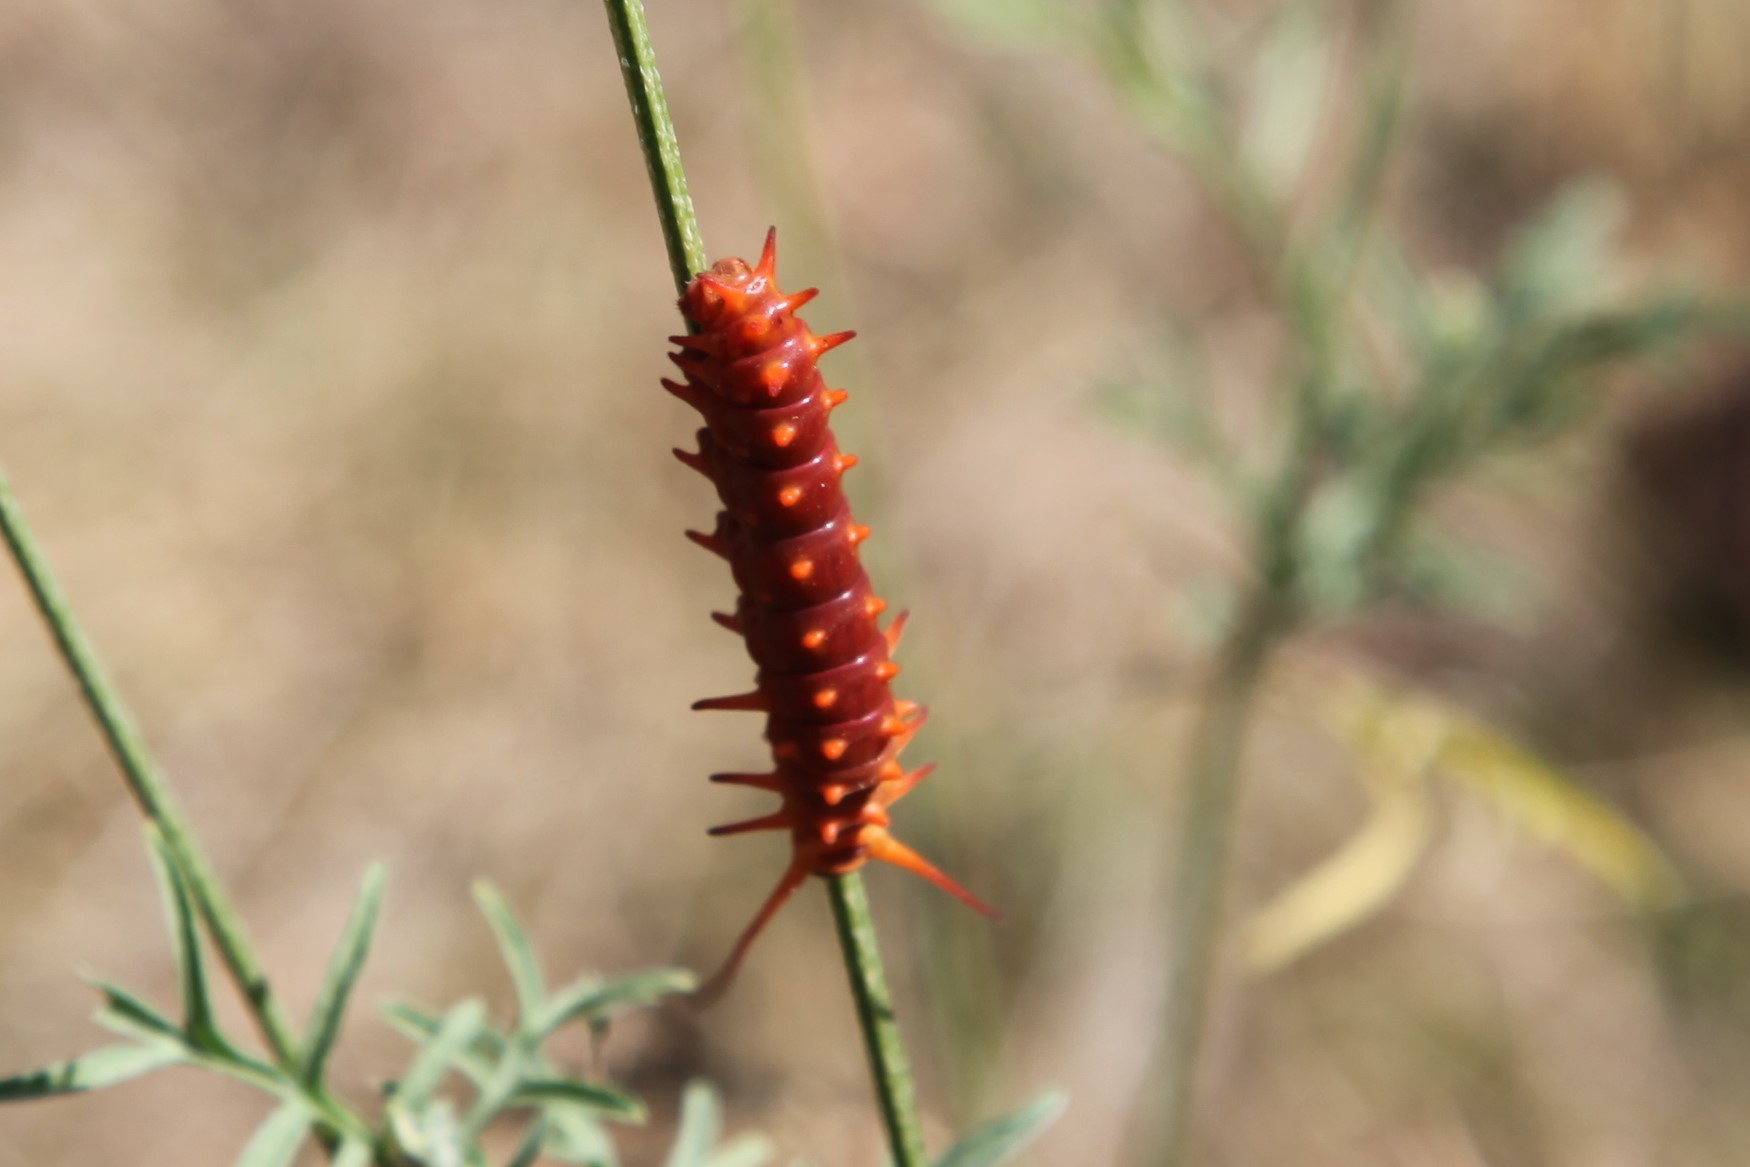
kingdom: Animalia
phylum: Arthropoda
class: Insecta
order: Lepidoptera
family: Papilionidae
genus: Battus
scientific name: Battus philenor
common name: Pipevine swallowtail
